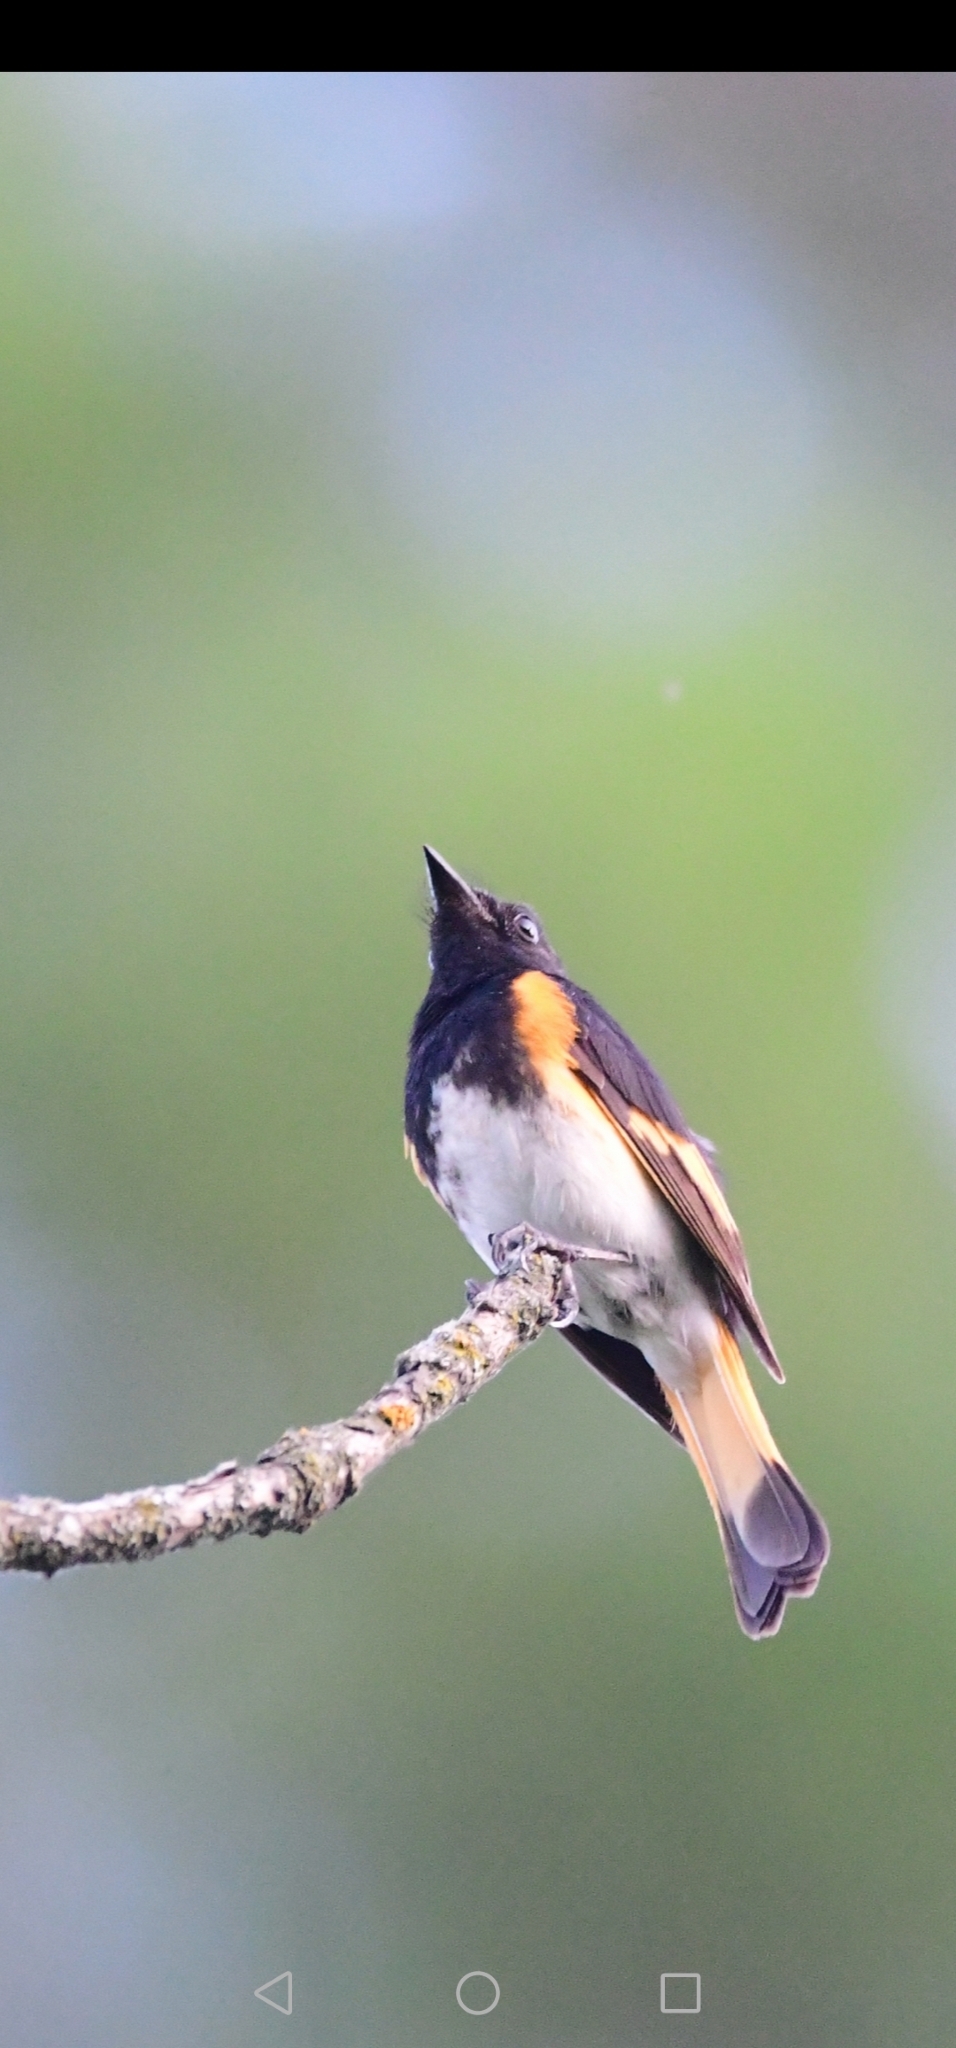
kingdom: Animalia
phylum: Chordata
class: Aves
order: Passeriformes
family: Parulidae
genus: Setophaga
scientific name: Setophaga ruticilla
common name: American redstart
